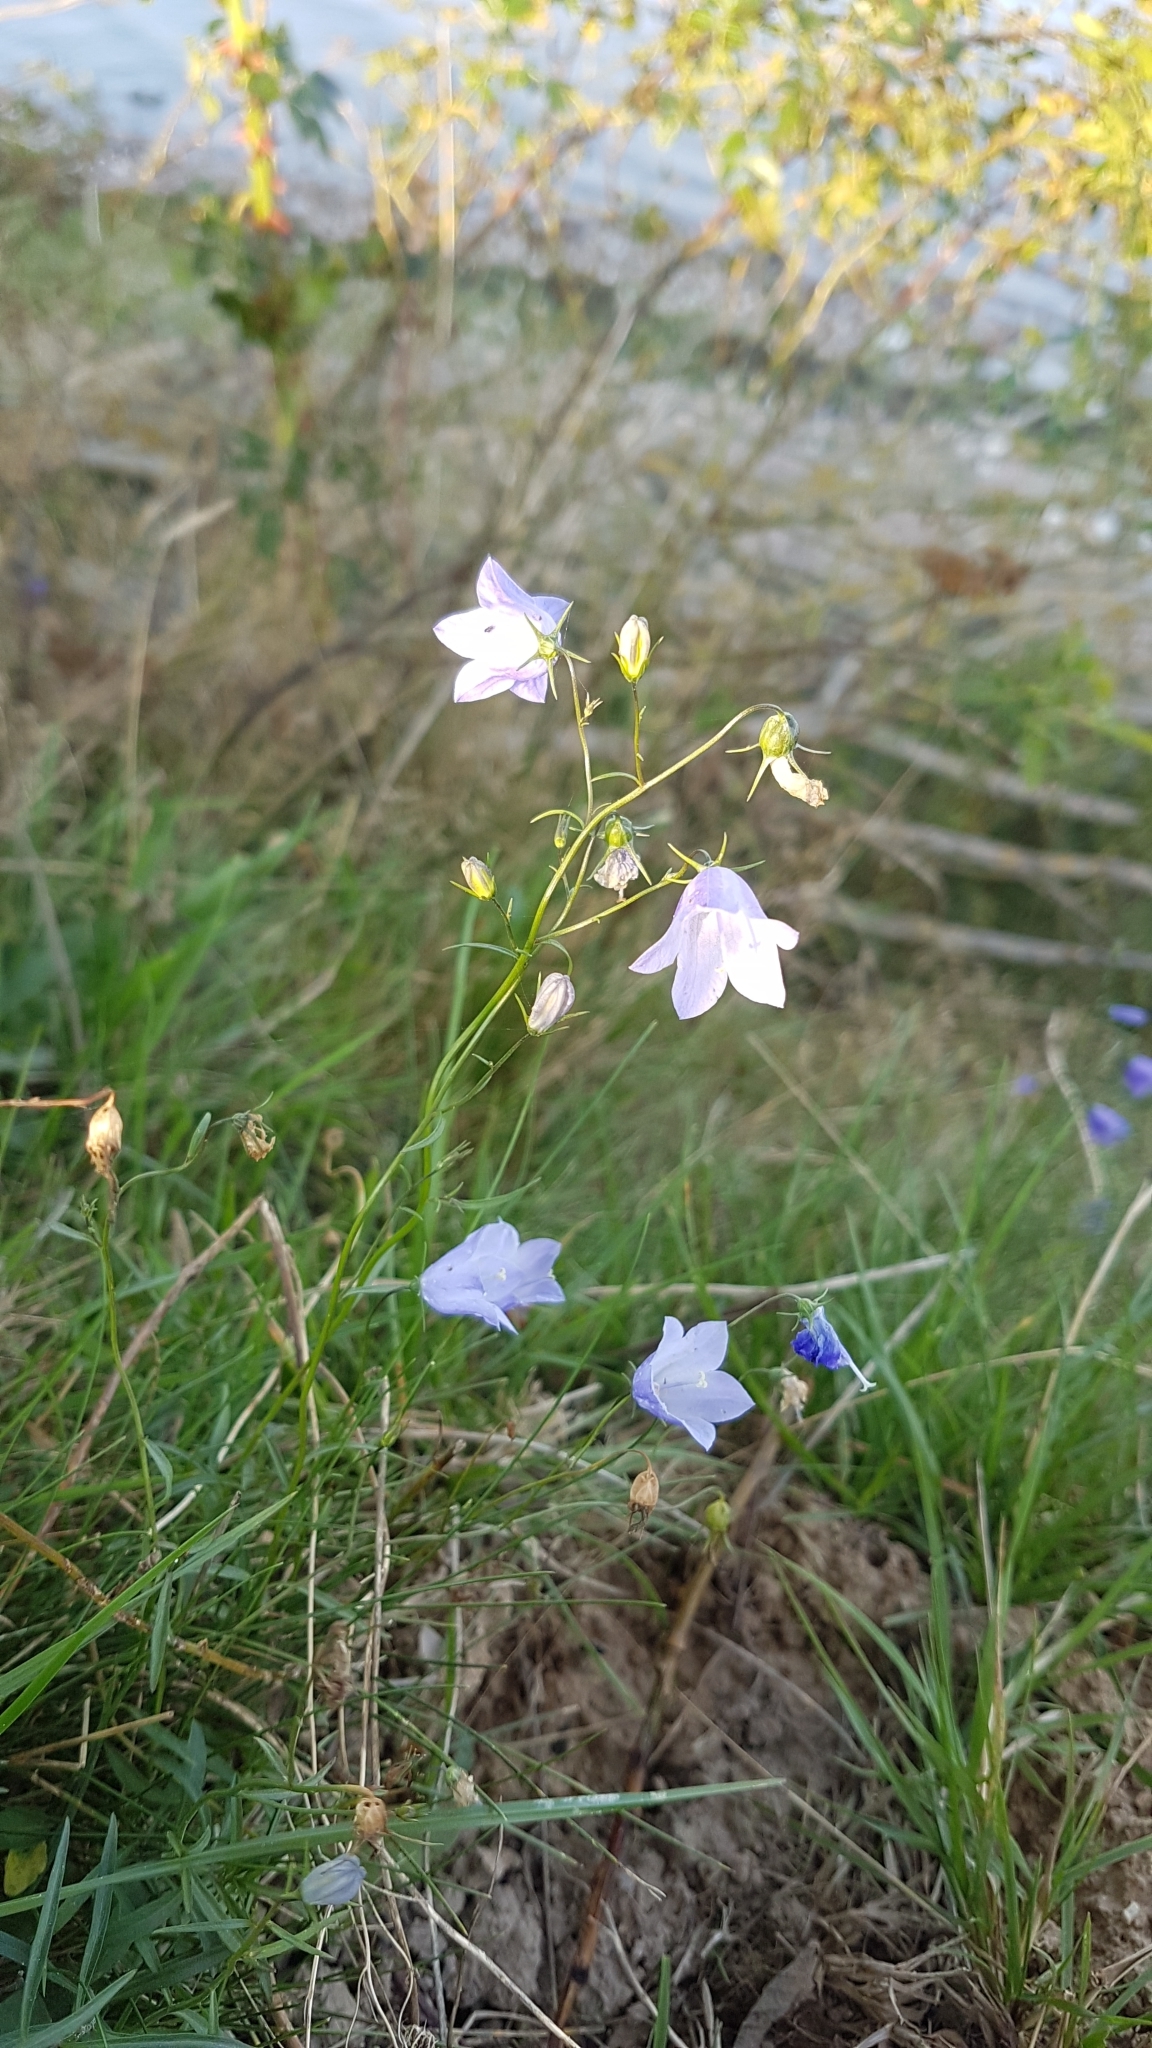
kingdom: Plantae
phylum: Tracheophyta
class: Magnoliopsida
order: Asterales
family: Campanulaceae
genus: Campanula
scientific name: Campanula rotundifolia
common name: Harebell
